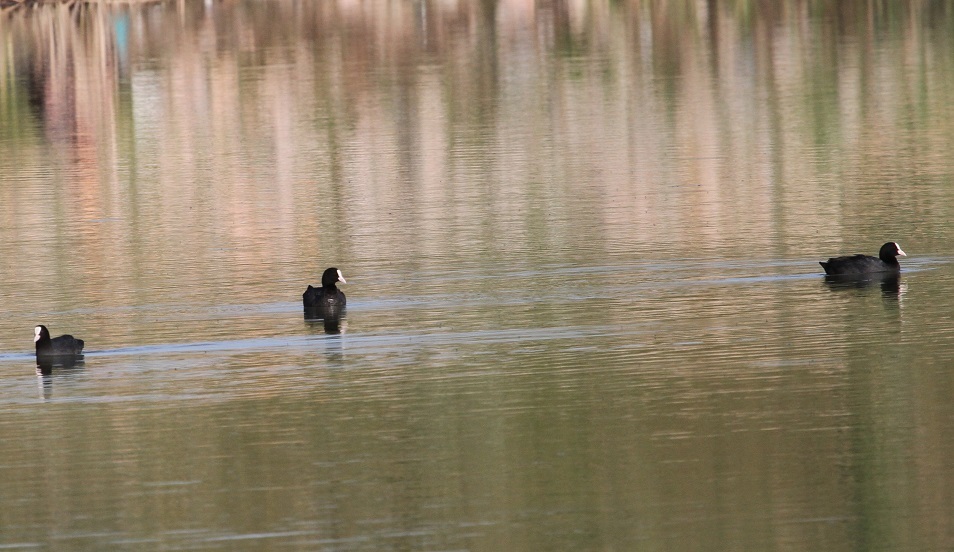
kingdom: Animalia
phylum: Chordata
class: Aves
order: Gruiformes
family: Rallidae
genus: Fulica
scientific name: Fulica atra
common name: Eurasian coot
